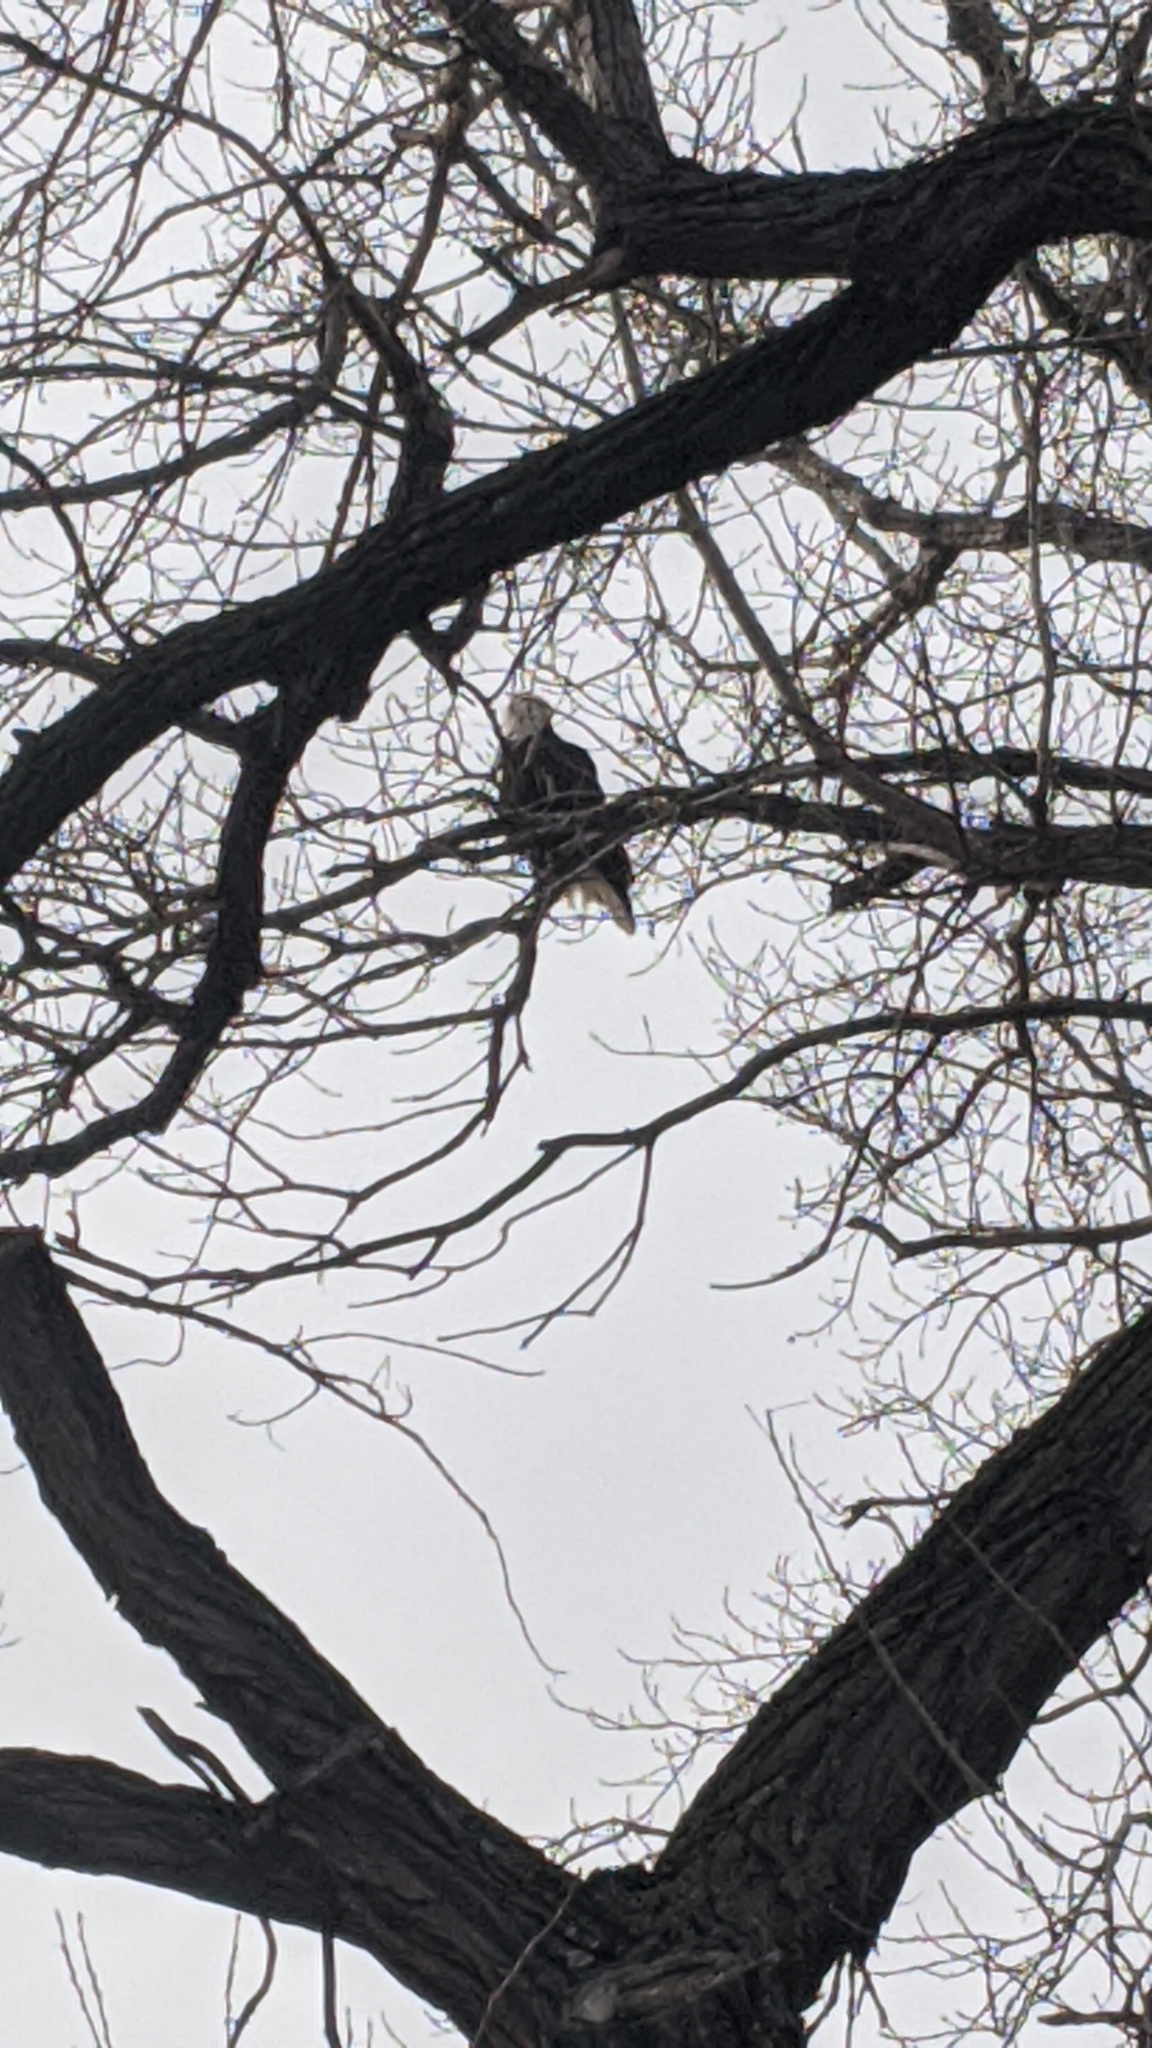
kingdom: Animalia
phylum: Chordata
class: Aves
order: Accipitriformes
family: Accipitridae
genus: Haliaeetus
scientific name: Haliaeetus leucocephalus
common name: Bald eagle
